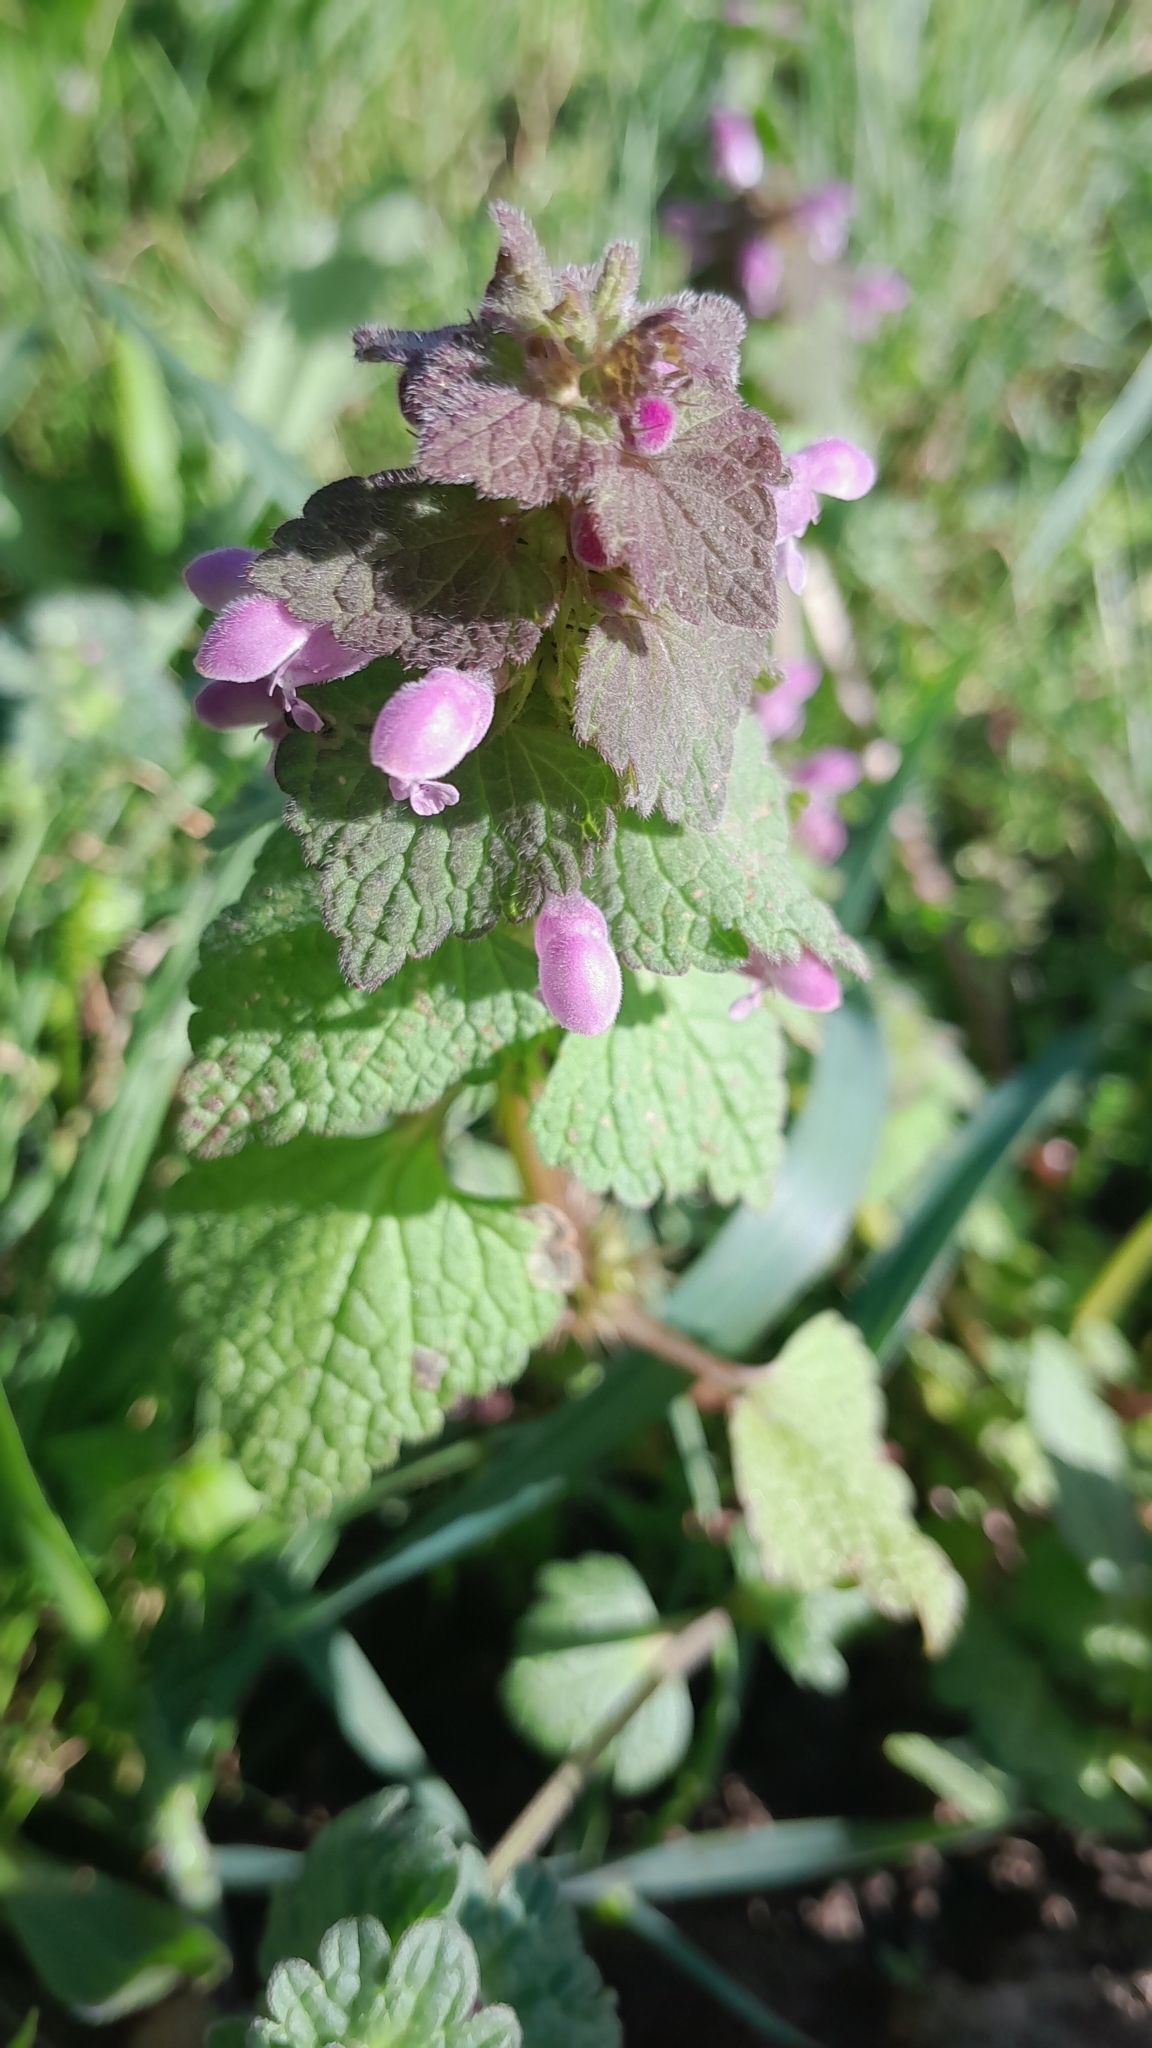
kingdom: Plantae
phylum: Tracheophyta
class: Magnoliopsida
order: Lamiales
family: Lamiaceae
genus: Lamium
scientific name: Lamium purpureum
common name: Red dead-nettle
